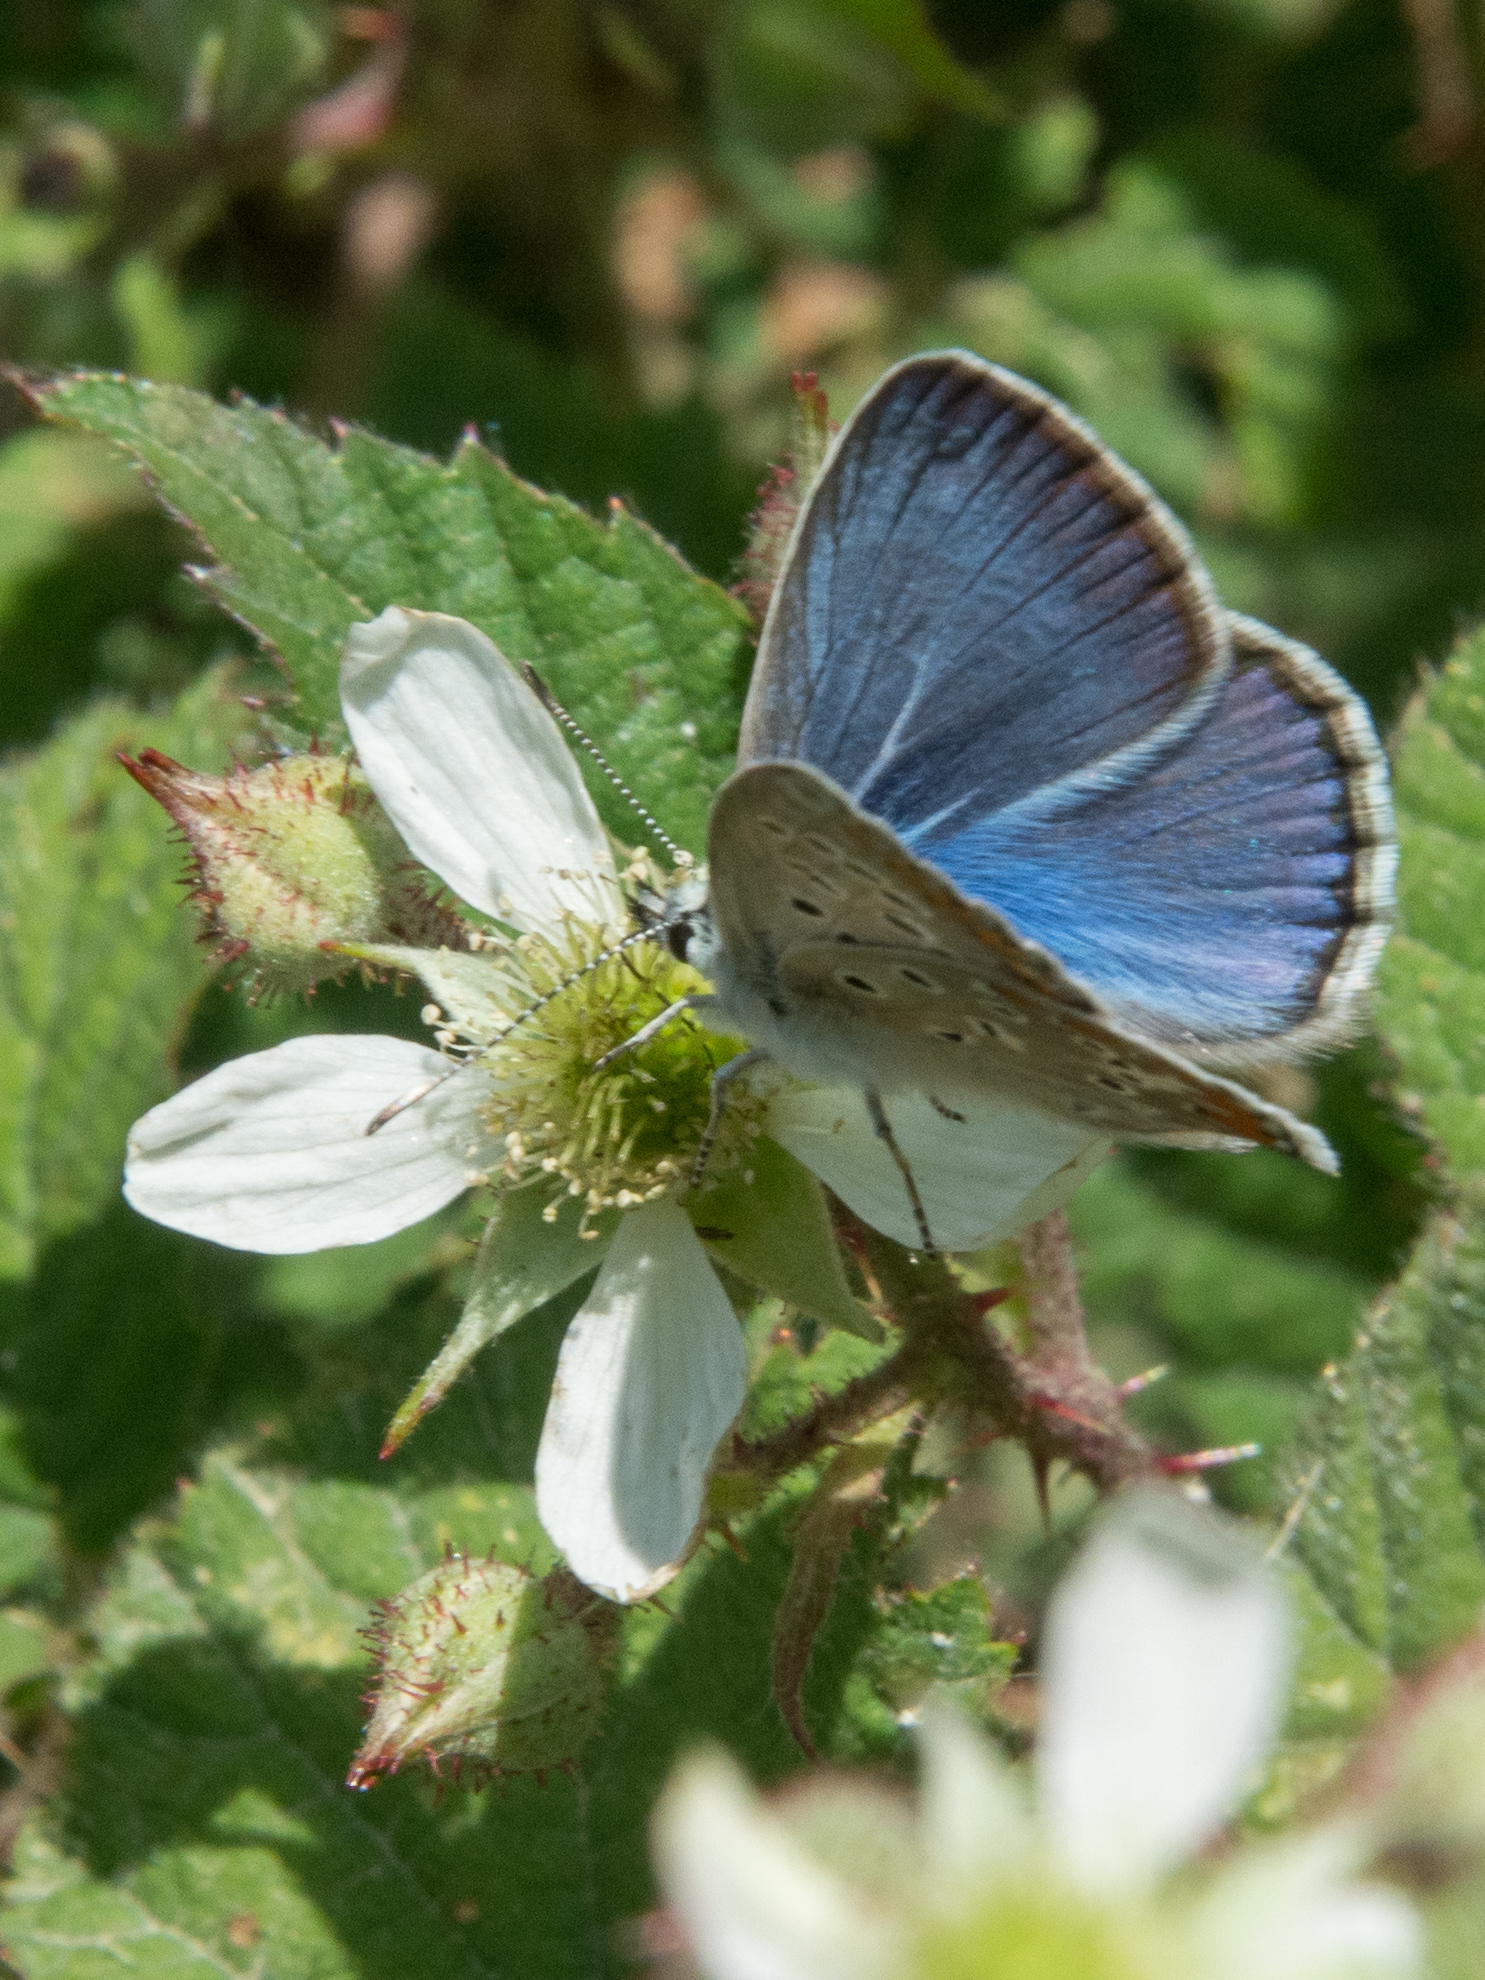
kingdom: Animalia
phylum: Arthropoda
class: Insecta
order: Lepidoptera
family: Lycaenidae
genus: Polyommatus
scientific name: Polyommatus celina
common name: Austaut's blue
